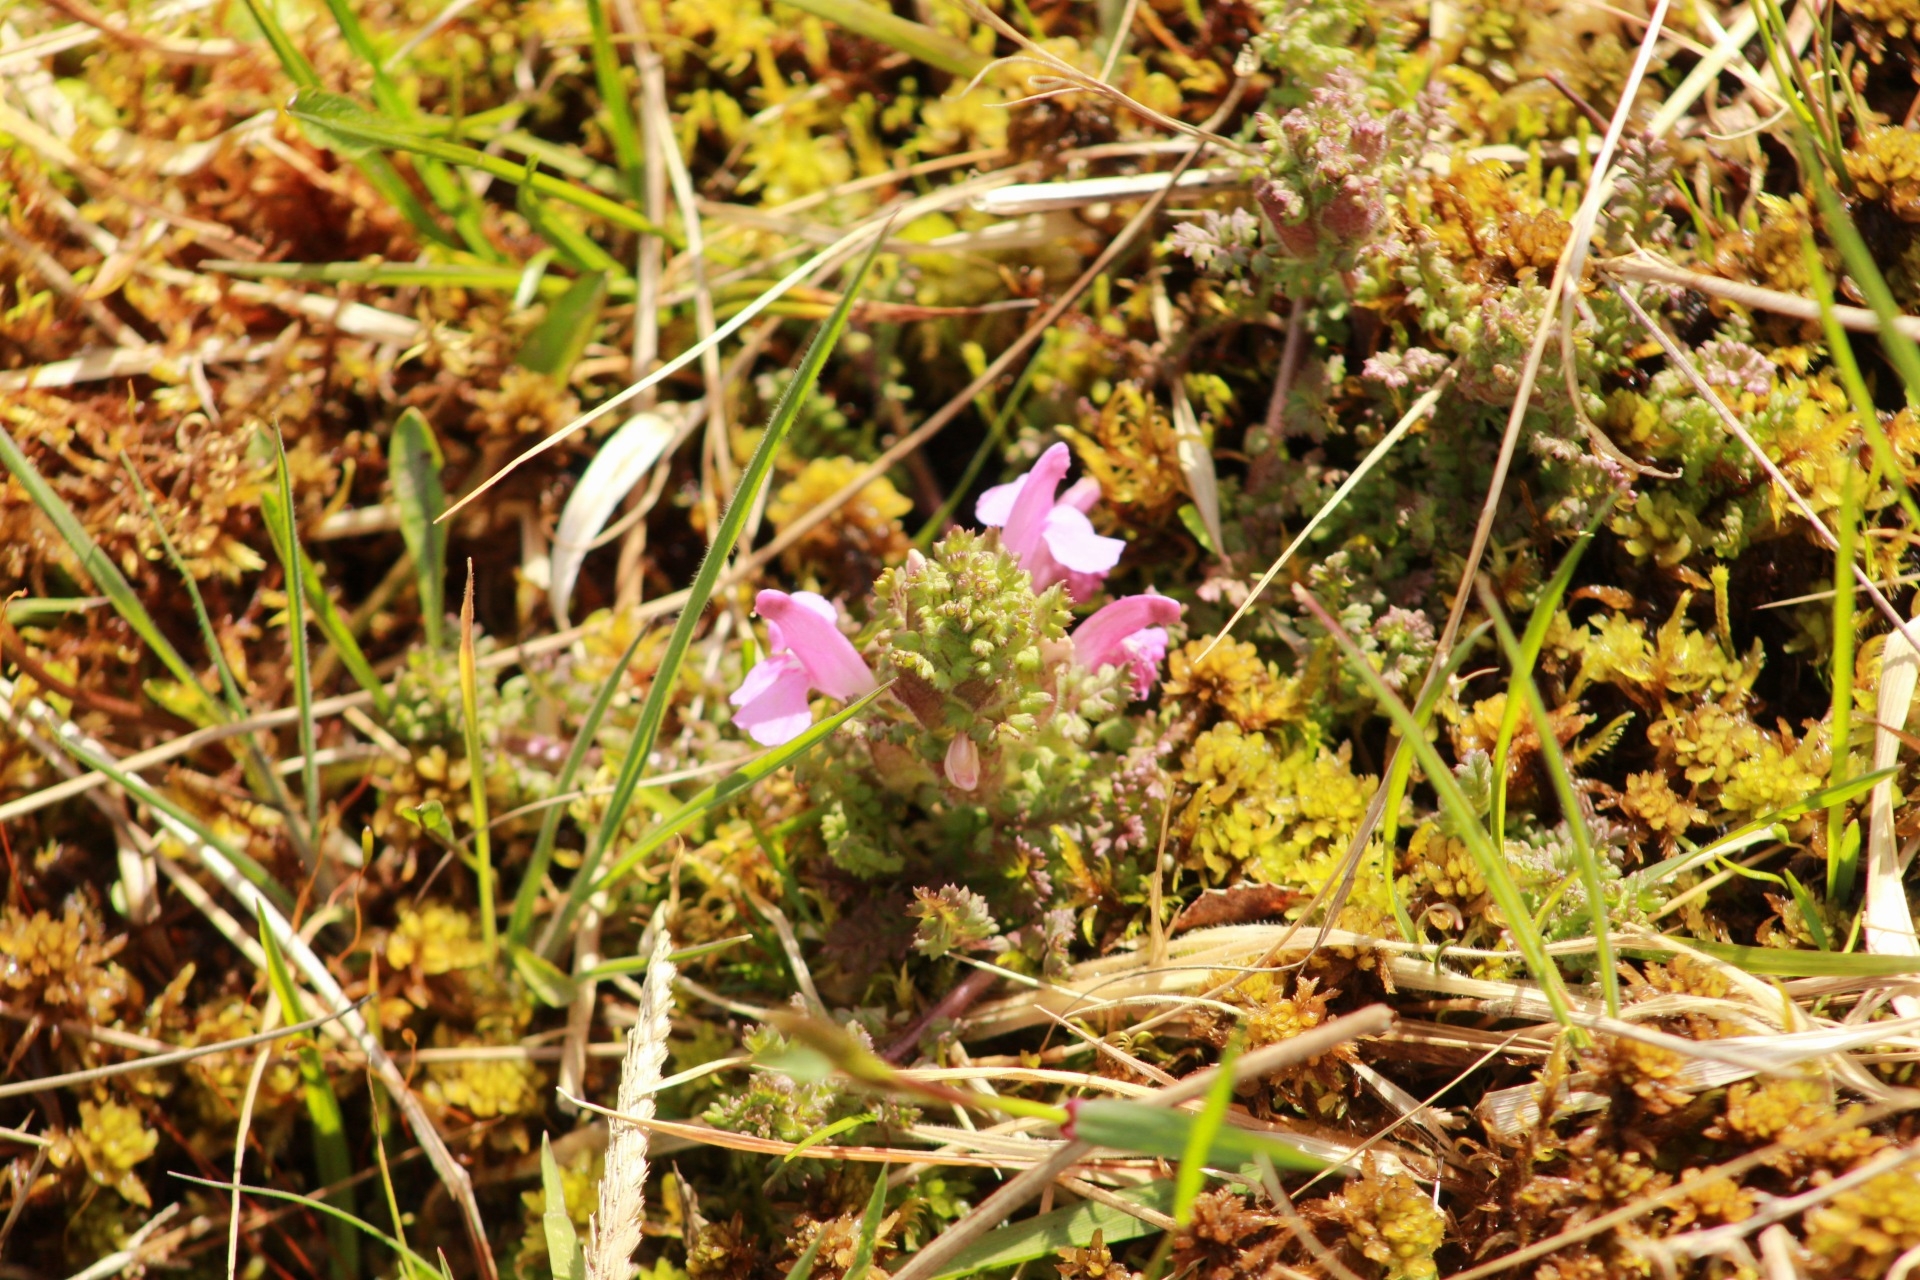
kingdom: Plantae
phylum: Tracheophyta
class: Magnoliopsida
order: Lamiales
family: Orobanchaceae
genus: Pedicularis
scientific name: Pedicularis sylvatica
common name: Lousewort
